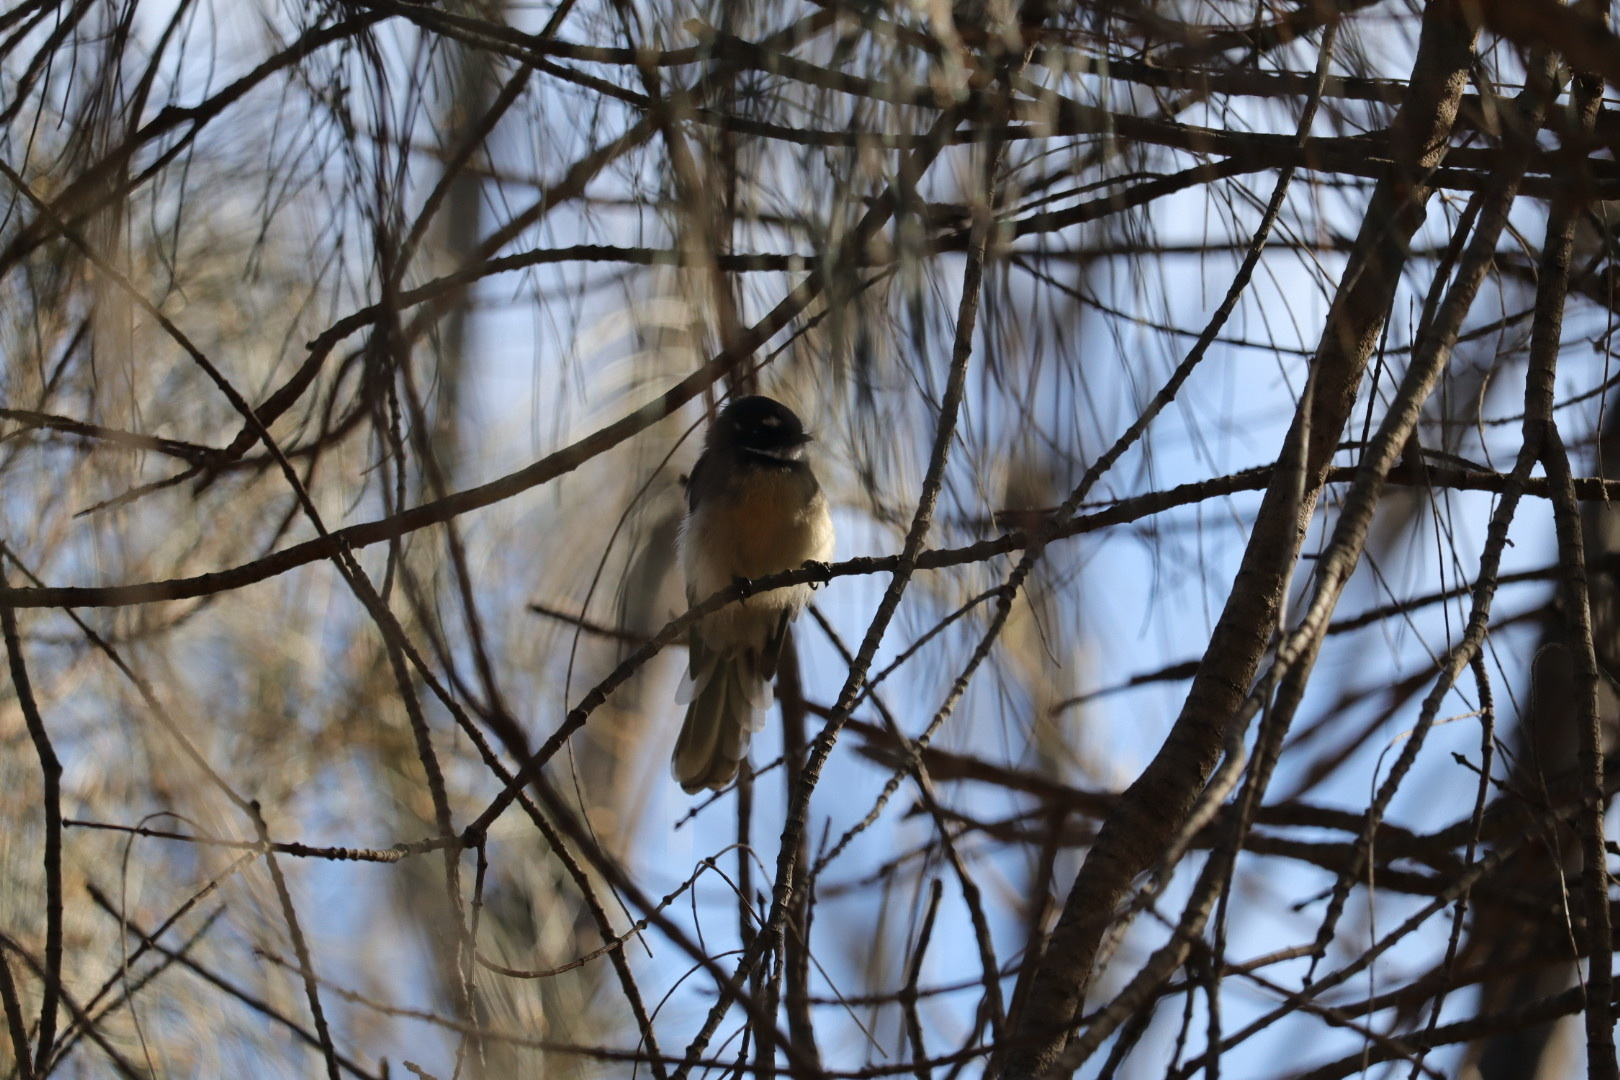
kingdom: Animalia
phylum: Chordata
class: Aves
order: Passeriformes
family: Rhipiduridae
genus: Rhipidura
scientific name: Rhipidura albiscapa
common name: Grey fantail
